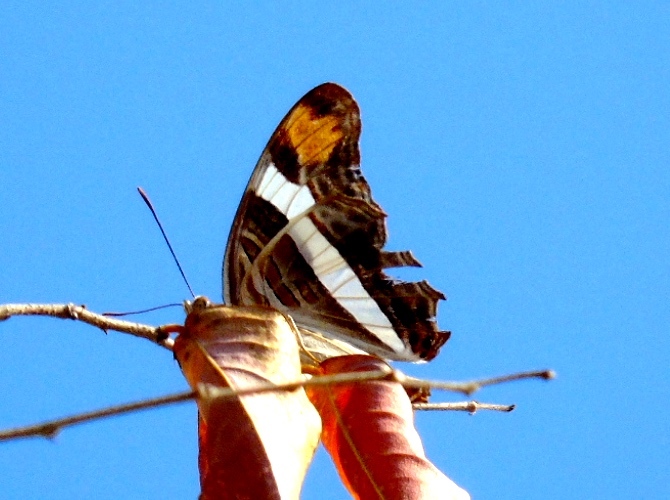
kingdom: Animalia
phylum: Arthropoda
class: Insecta
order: Lepidoptera
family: Nymphalidae
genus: Limenitis
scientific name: Limenitis fessonia
